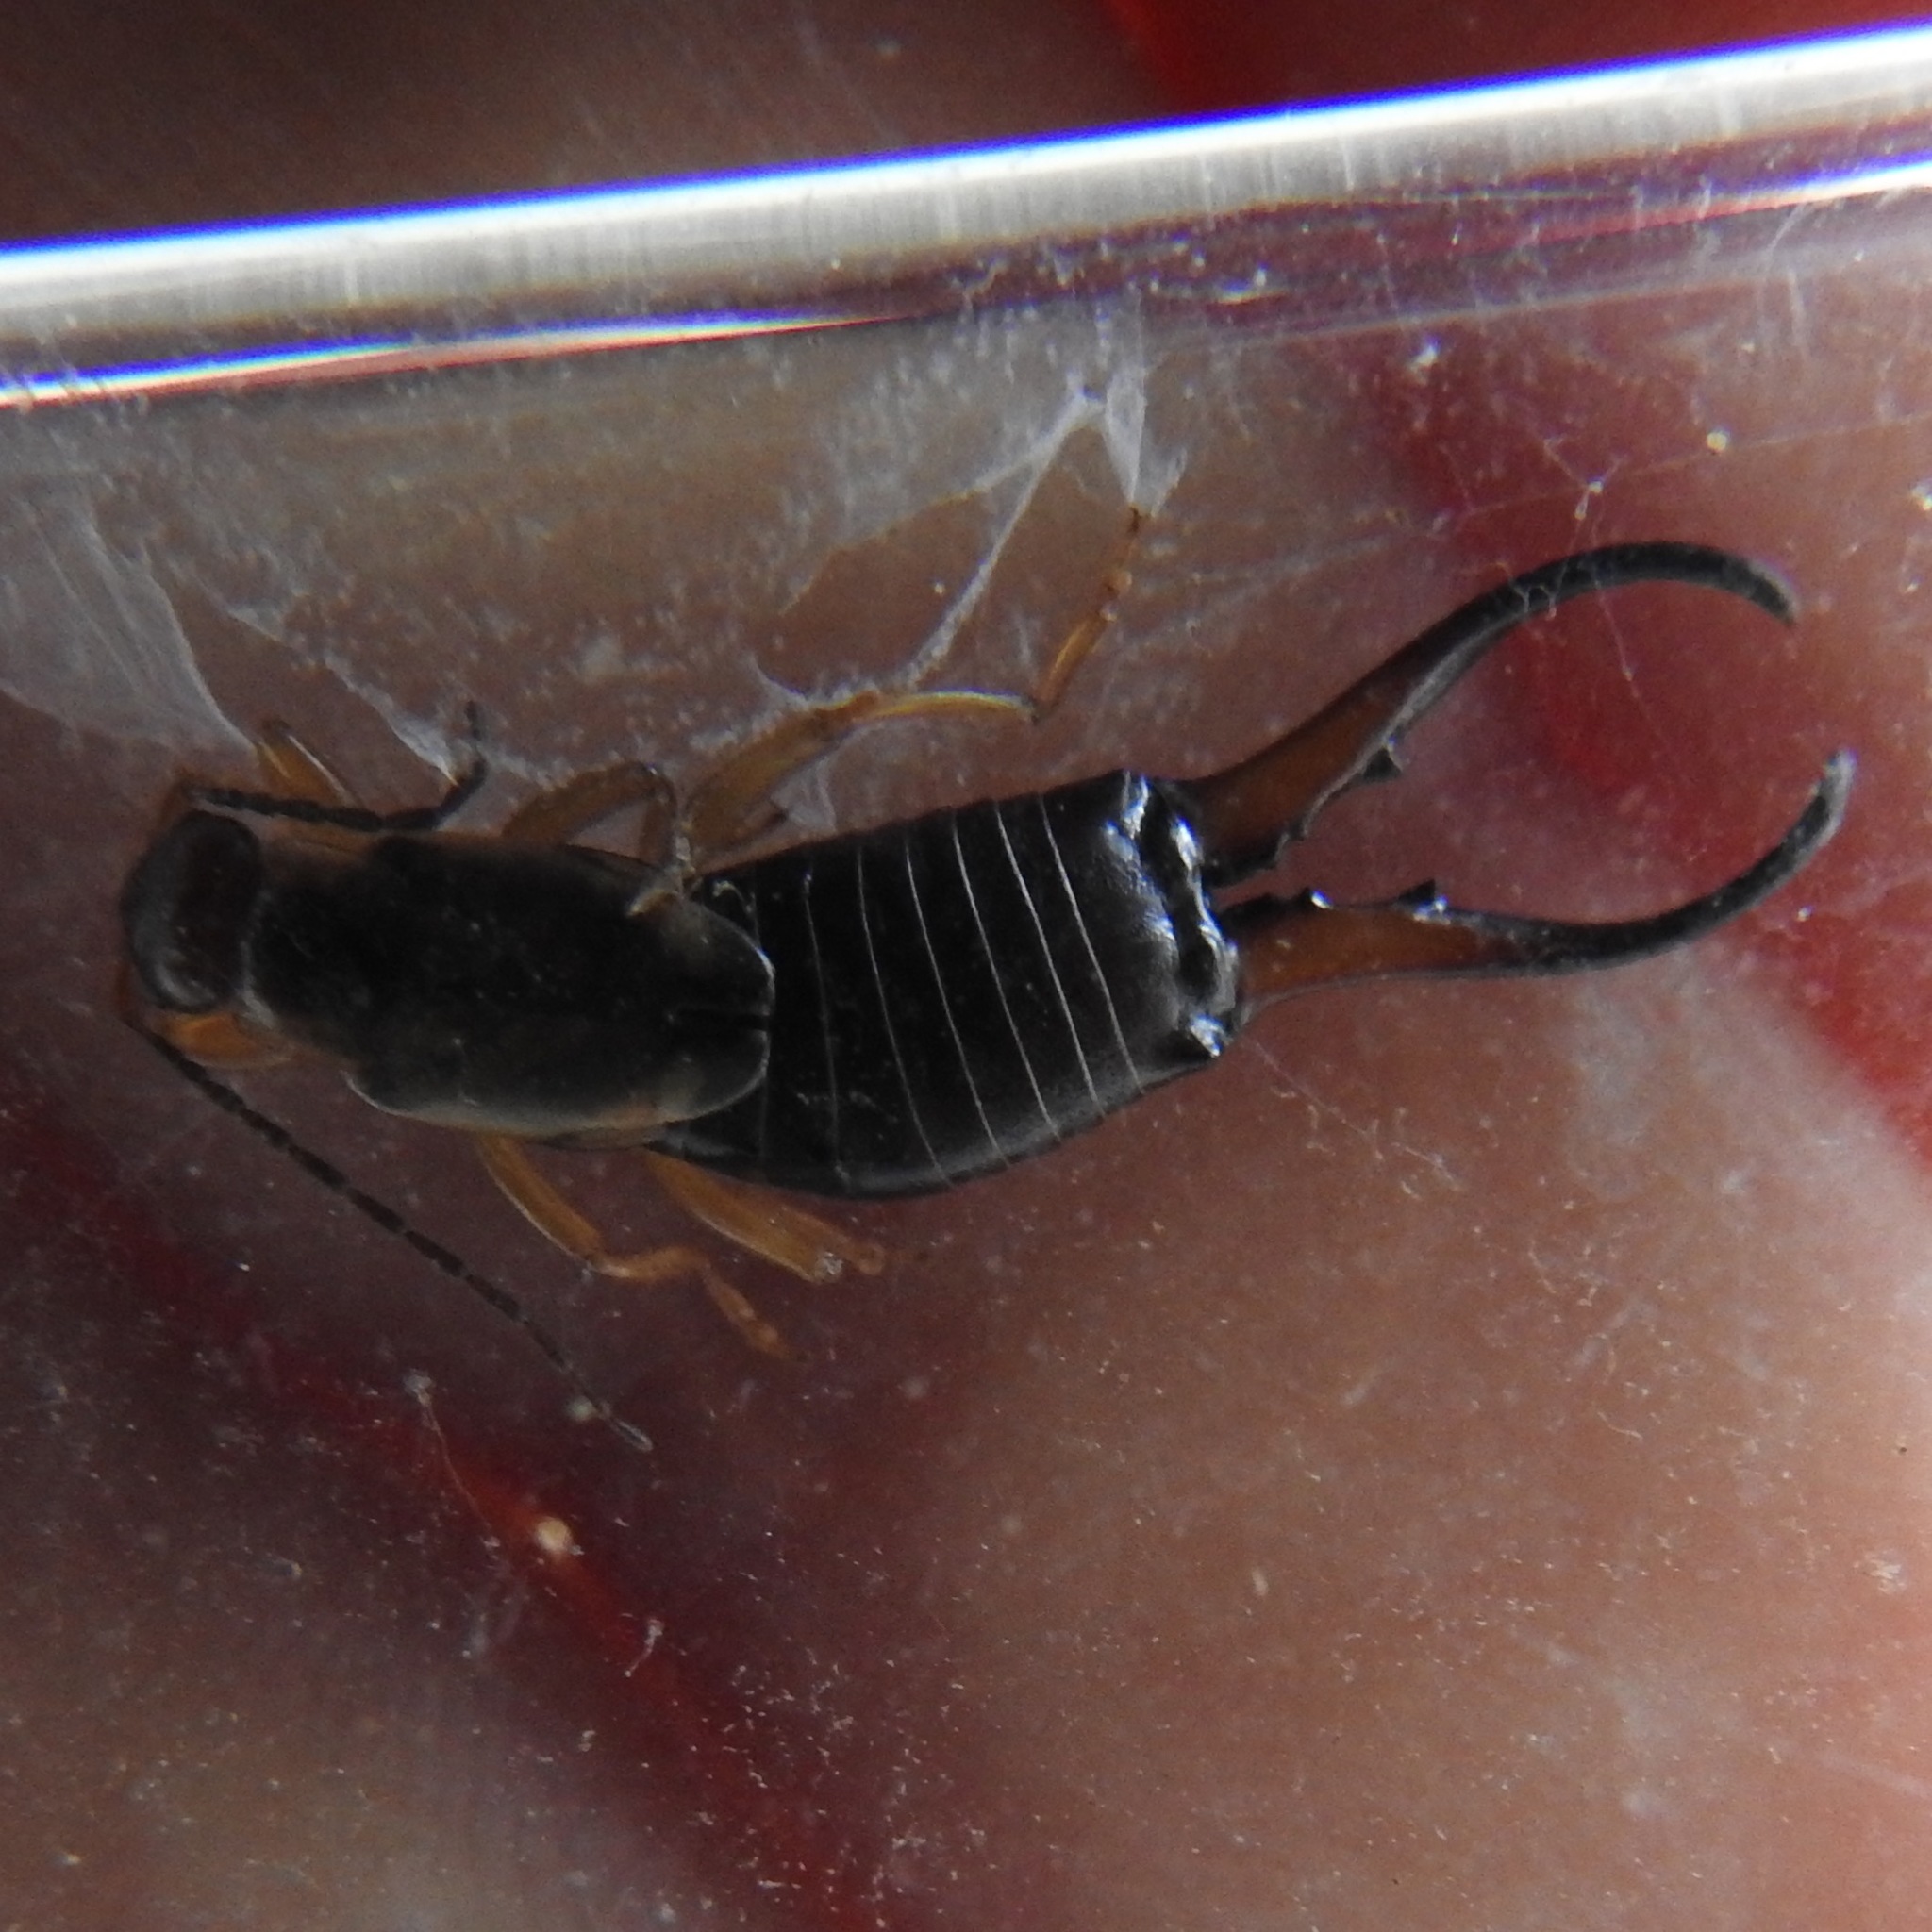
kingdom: Animalia
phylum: Arthropoda
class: Insecta
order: Dermaptera
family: Forficulidae
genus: Forficula
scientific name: Forficula
